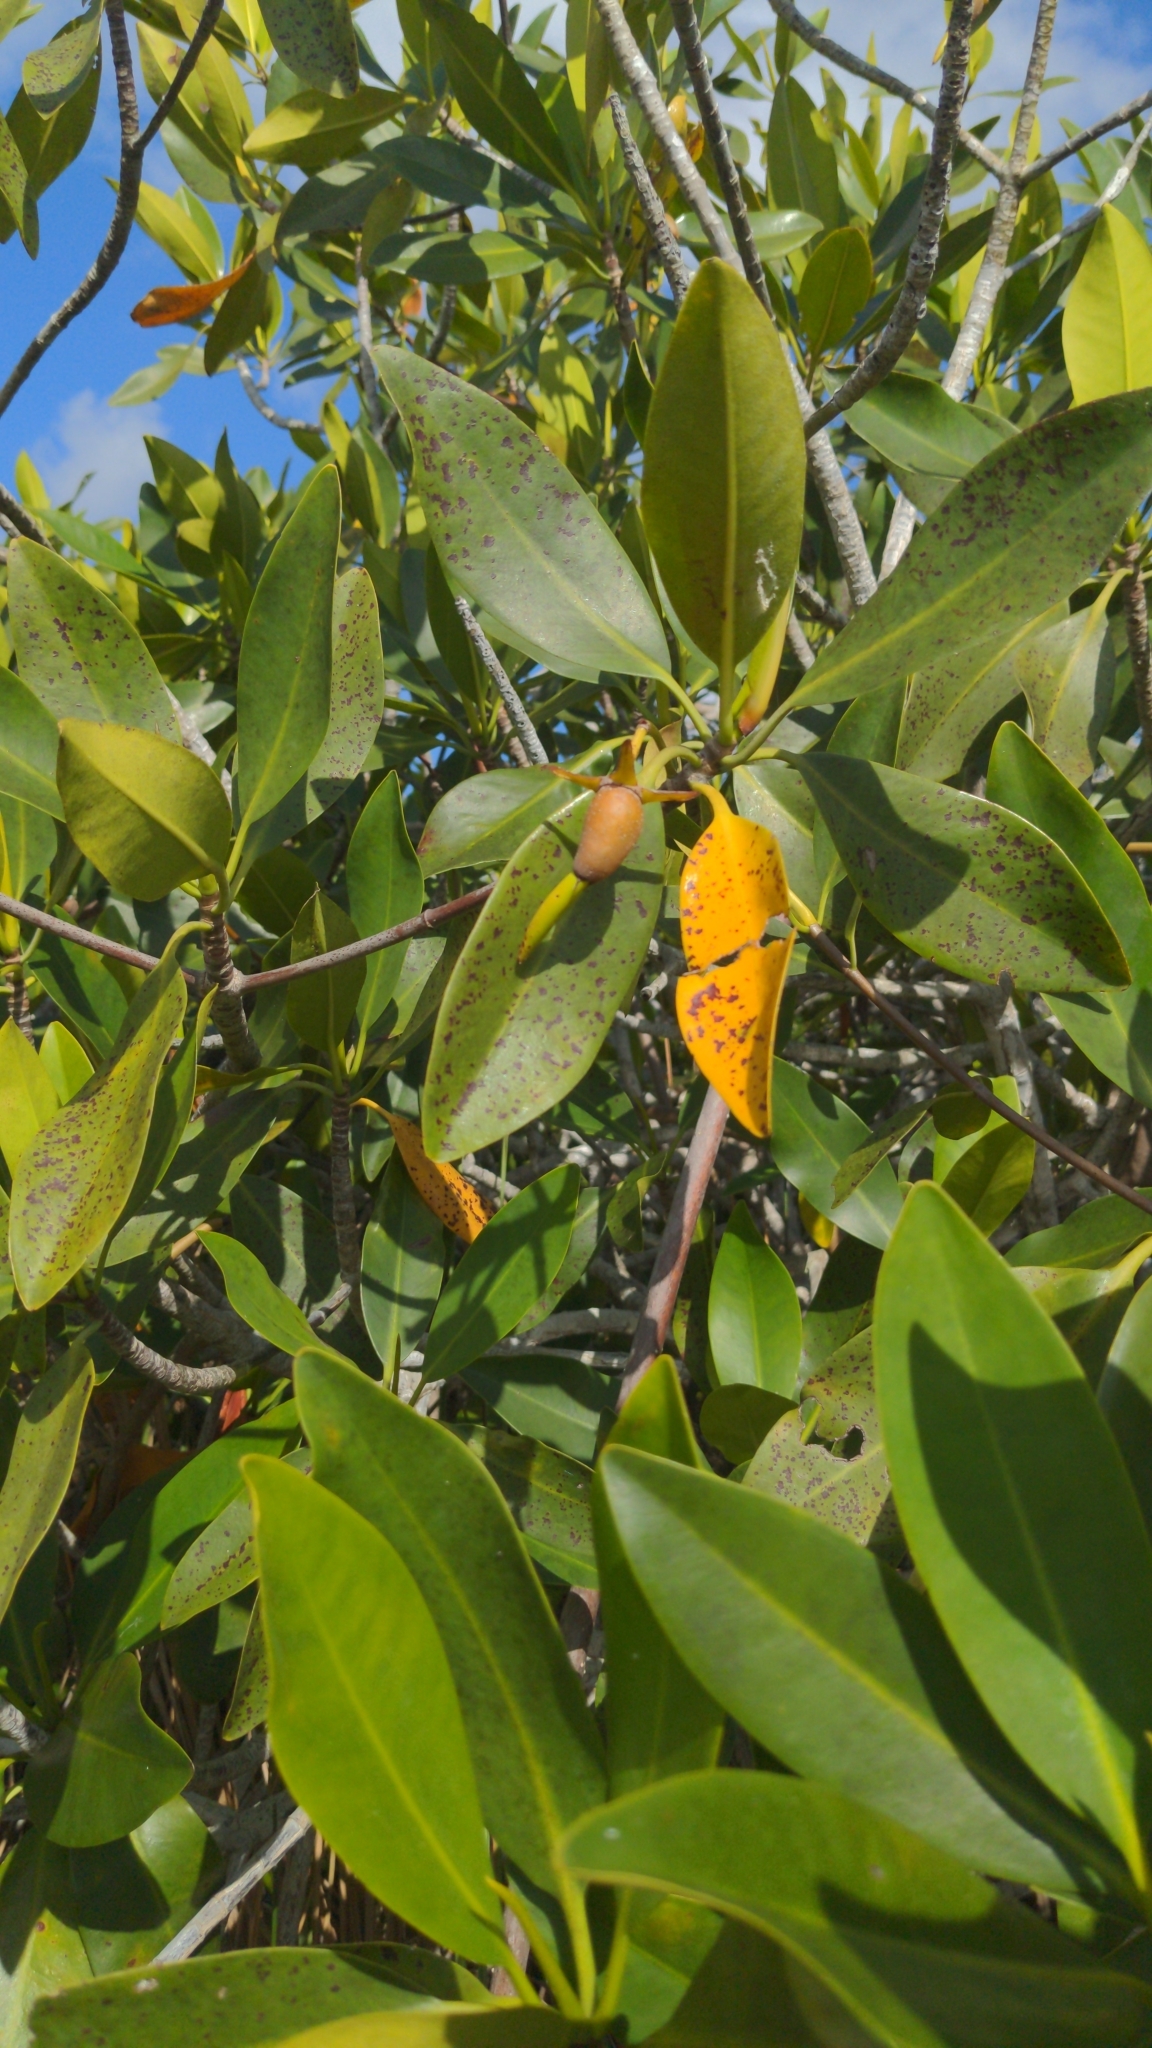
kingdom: Plantae
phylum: Tracheophyta
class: Magnoliopsida
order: Malpighiales
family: Rhizophoraceae
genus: Rhizophora
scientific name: Rhizophora mangle
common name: Red mangrove
